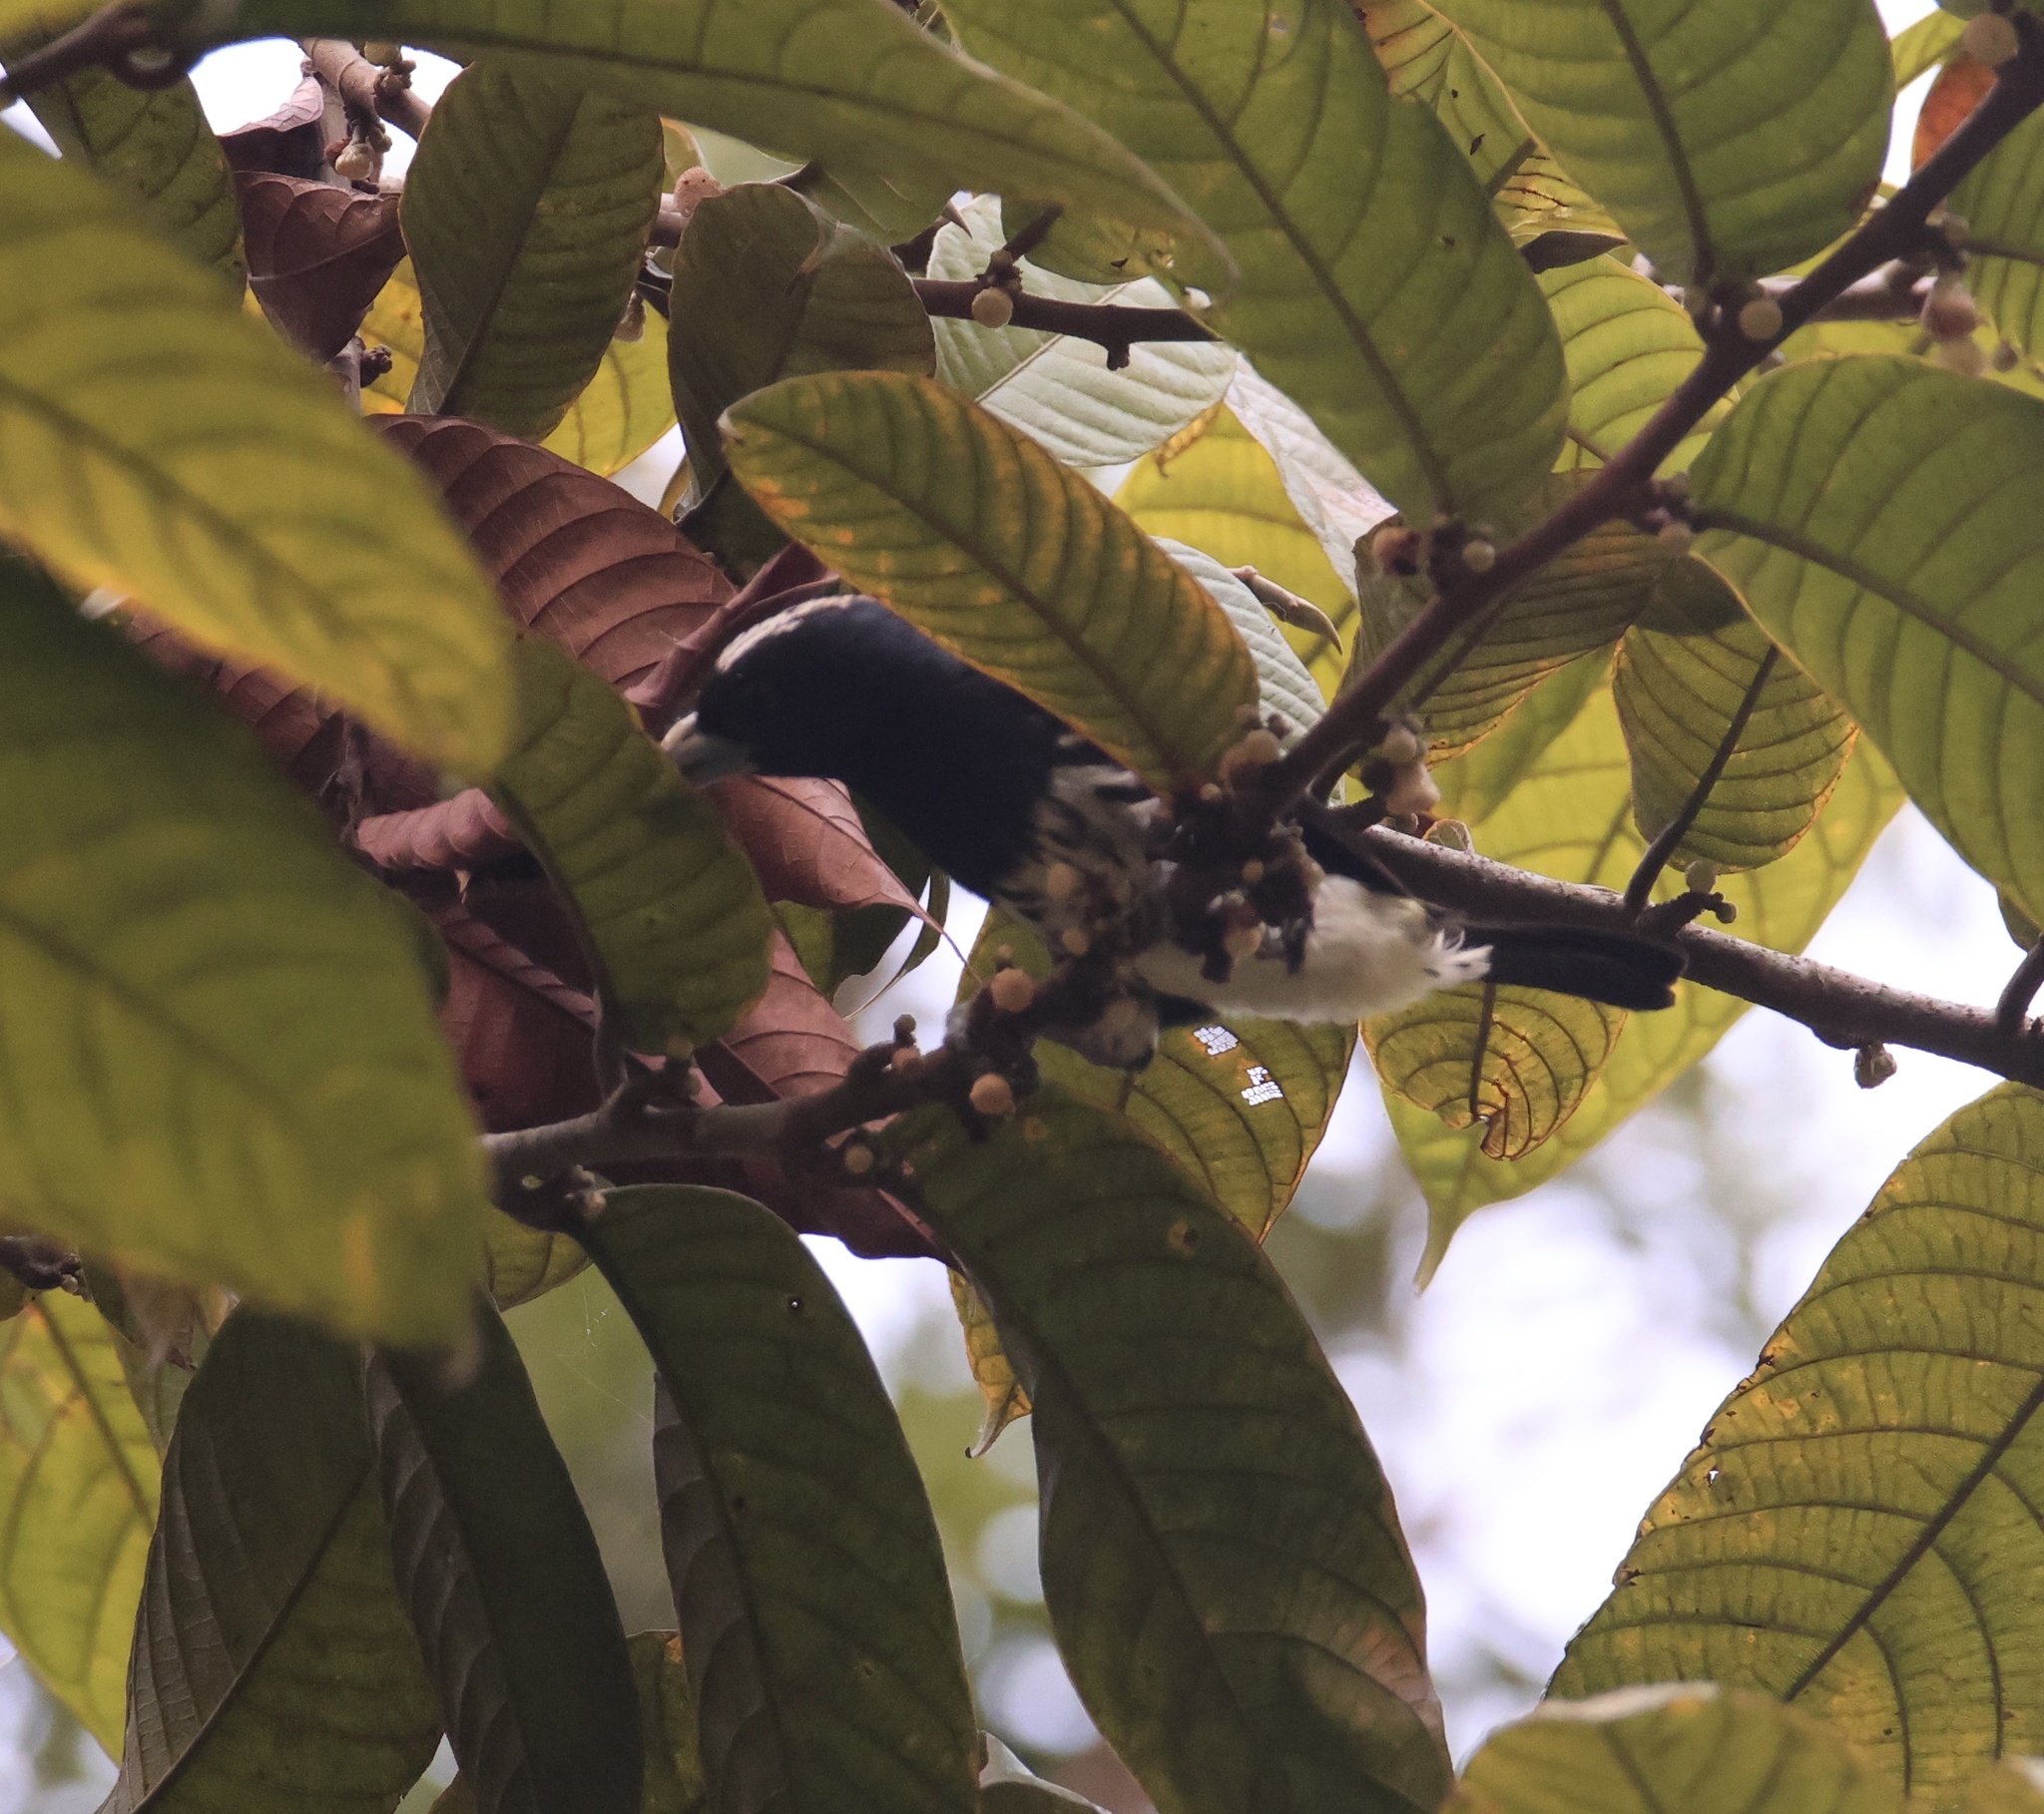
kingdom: Animalia
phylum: Chordata
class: Aves
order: Piciformes
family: Capitonidae
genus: Capito
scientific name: Capito maculicoronatus
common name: Spot-crowned barbet
